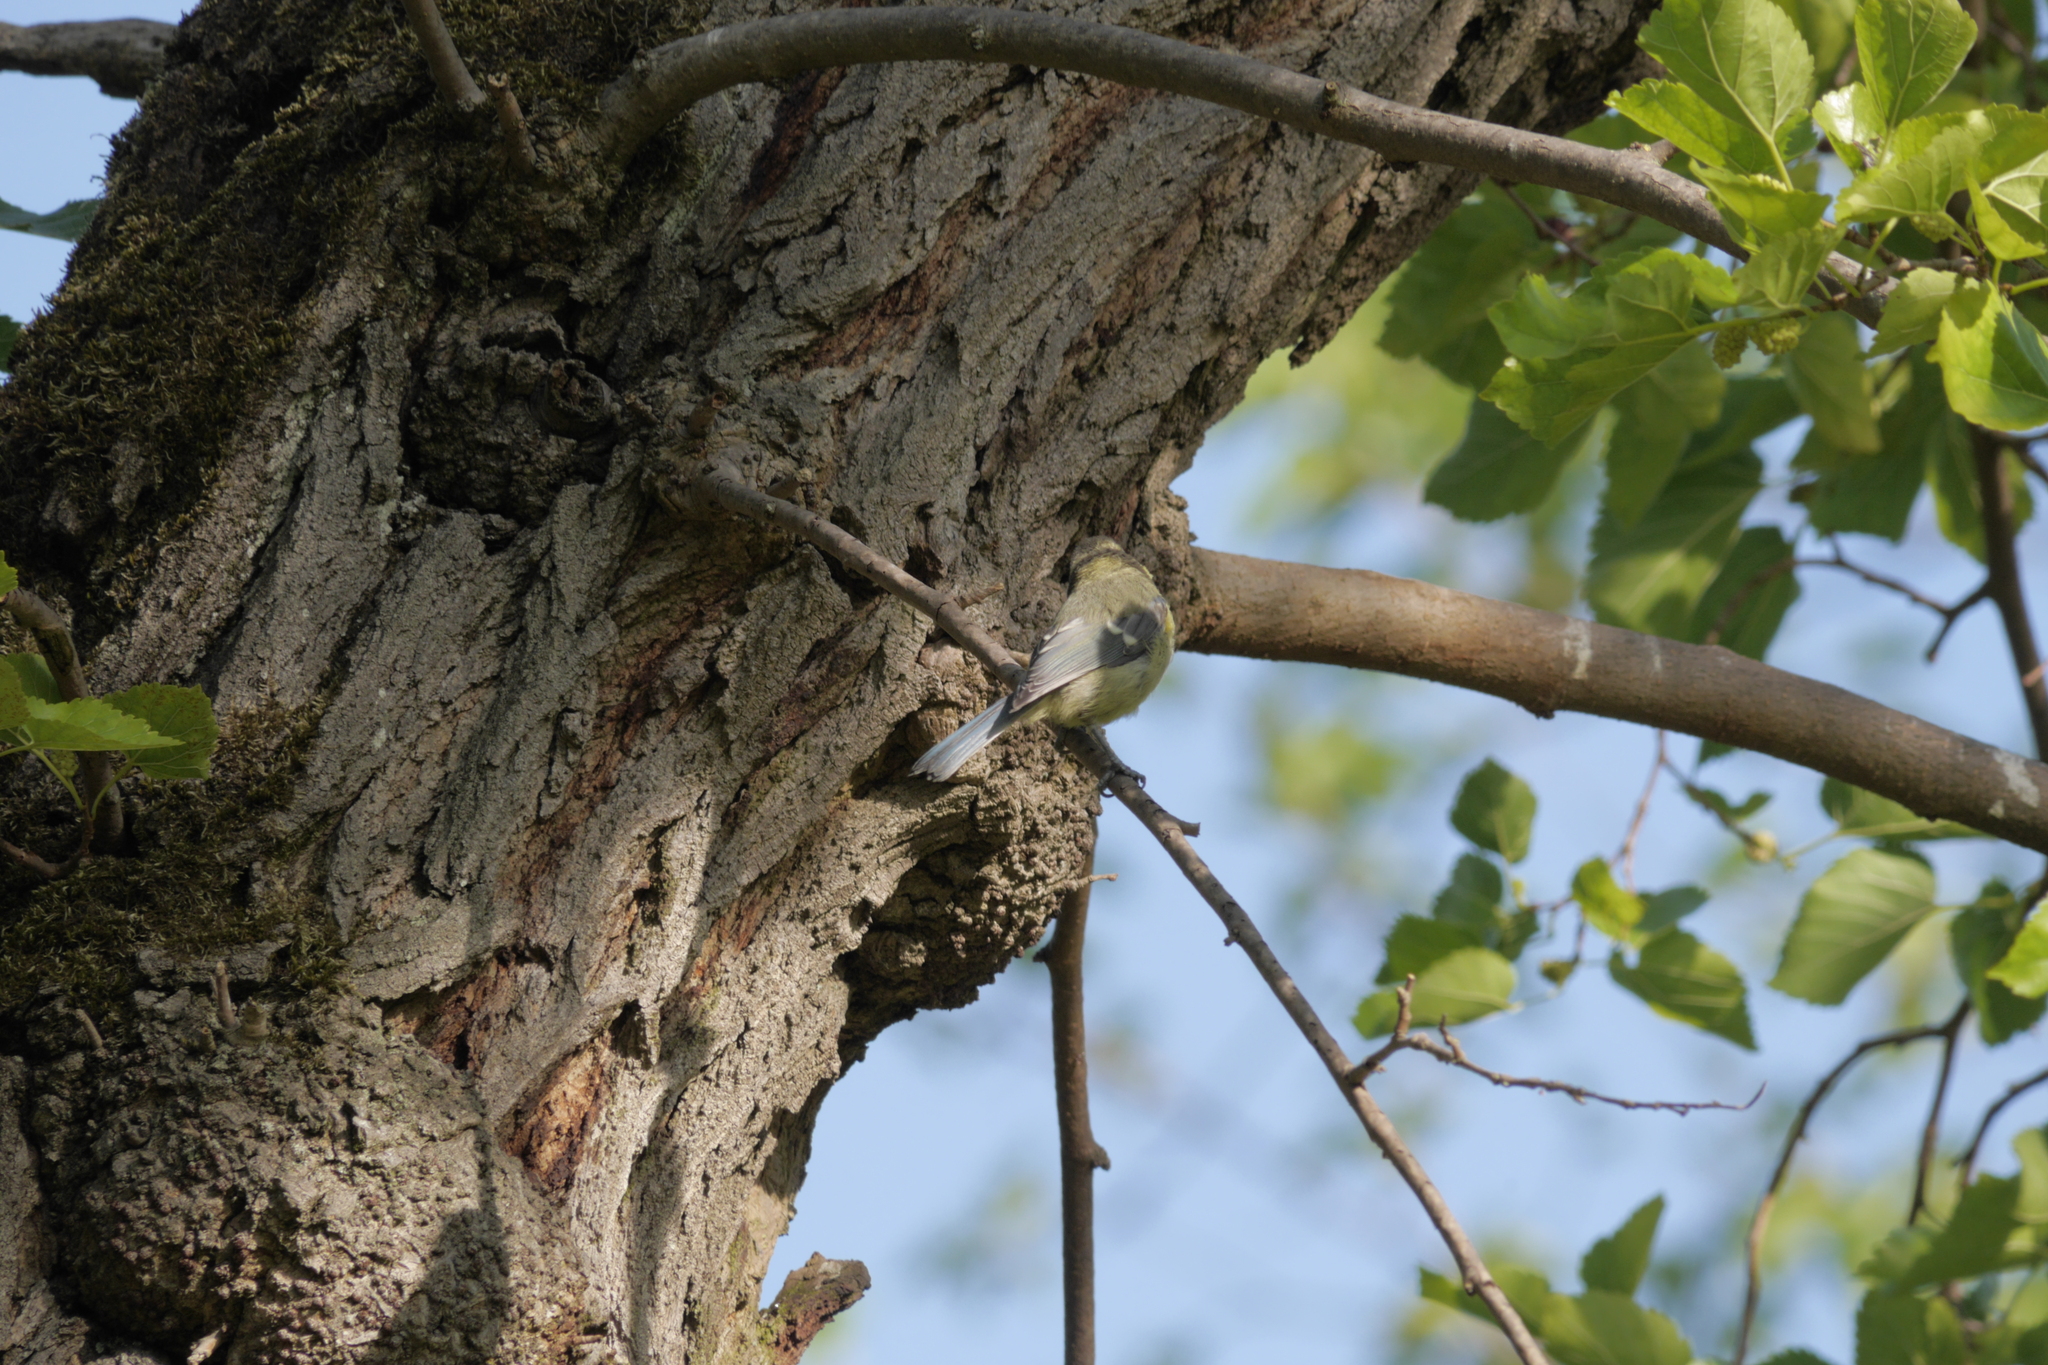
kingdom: Animalia
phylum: Chordata
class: Aves
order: Passeriformes
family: Paridae
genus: Cyanistes
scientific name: Cyanistes caeruleus
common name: Eurasian blue tit
